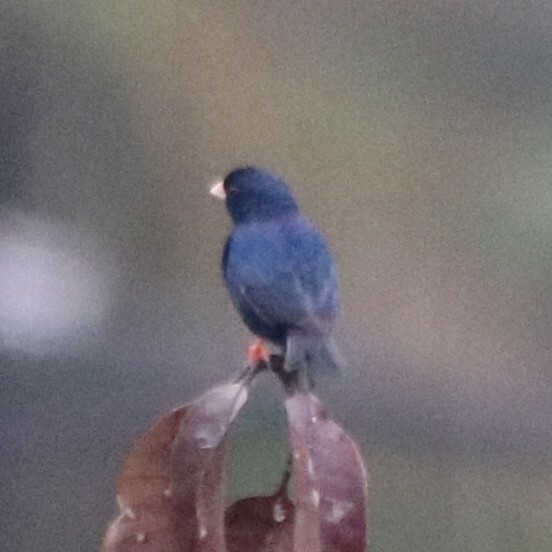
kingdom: Animalia
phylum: Chordata
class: Aves
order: Passeriformes
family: Viduidae
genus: Vidua
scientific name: Vidua chalybeata
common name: Village indigobird
